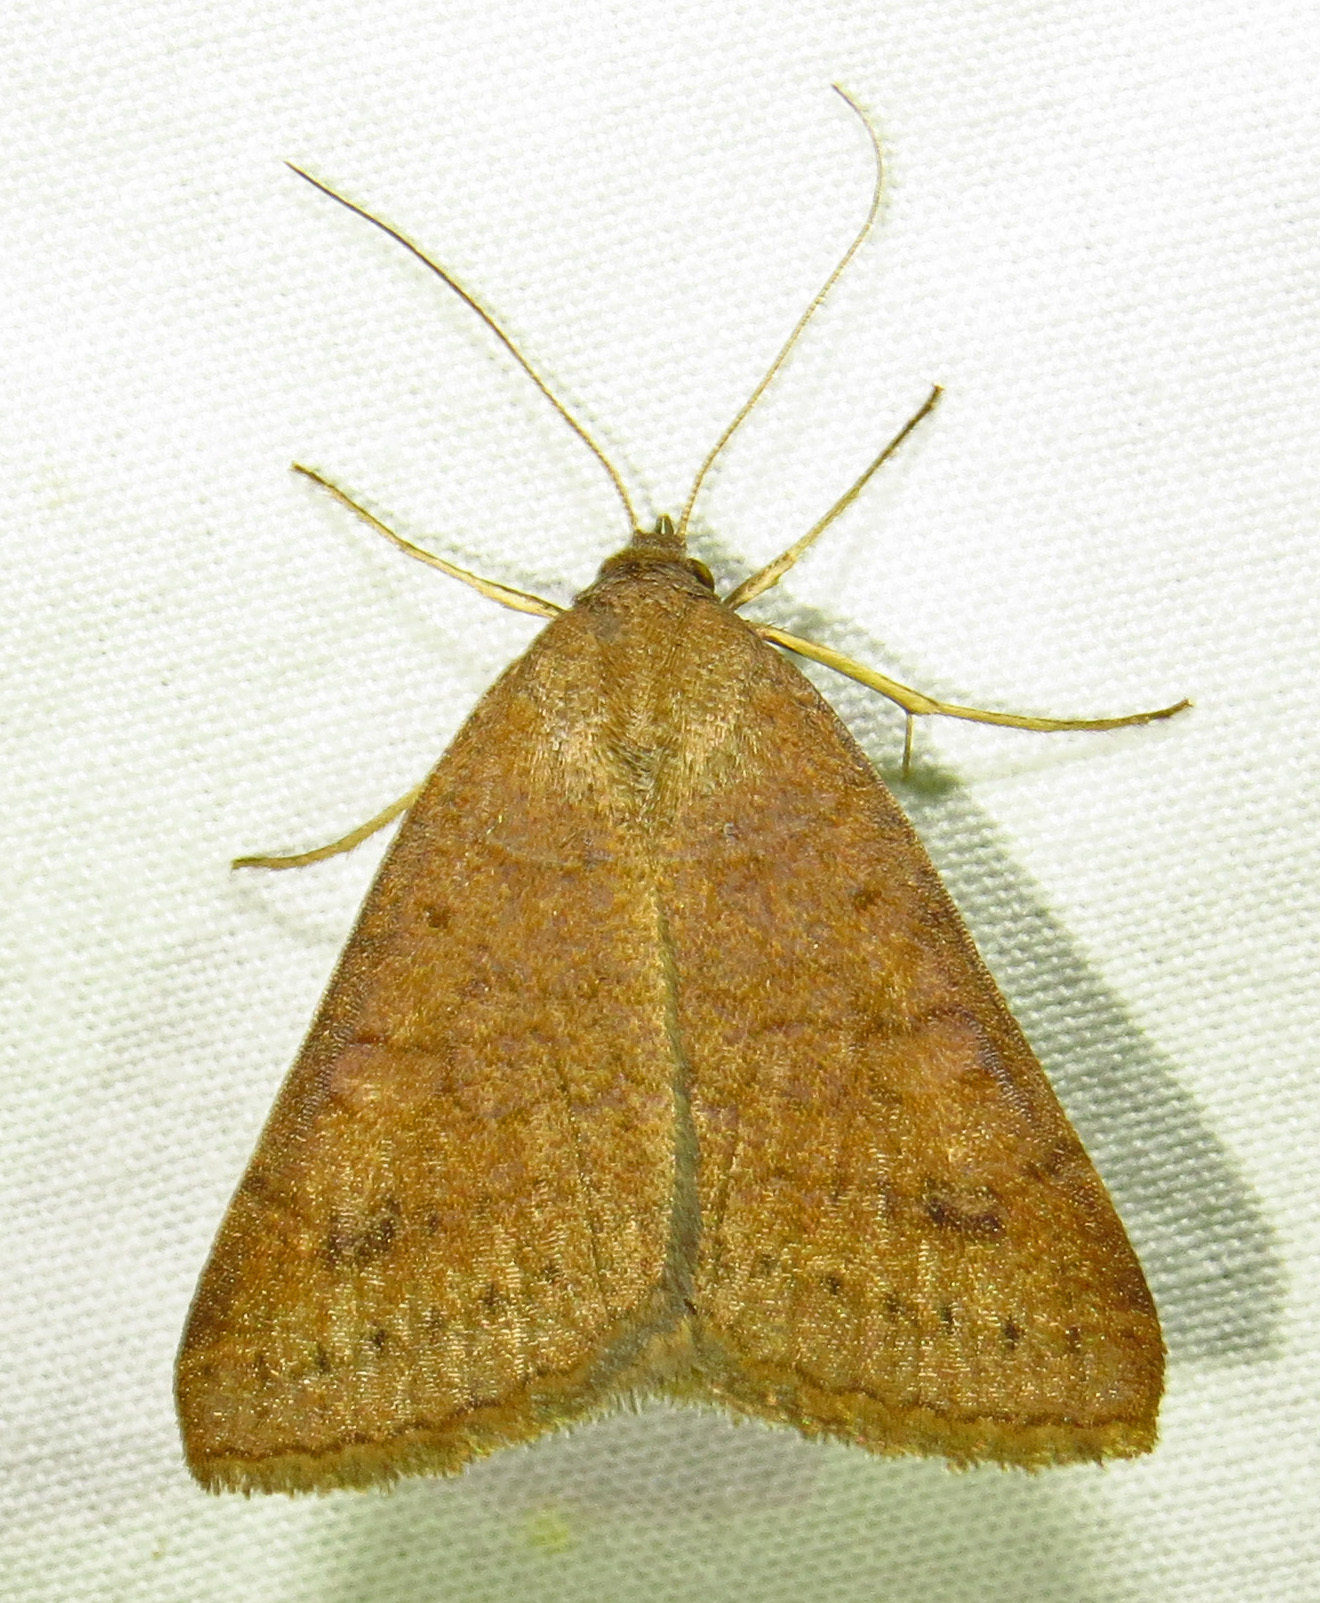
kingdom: Animalia
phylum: Arthropoda
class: Insecta
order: Lepidoptera
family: Erebidae
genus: Caenurgia
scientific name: Caenurgia chloropha
